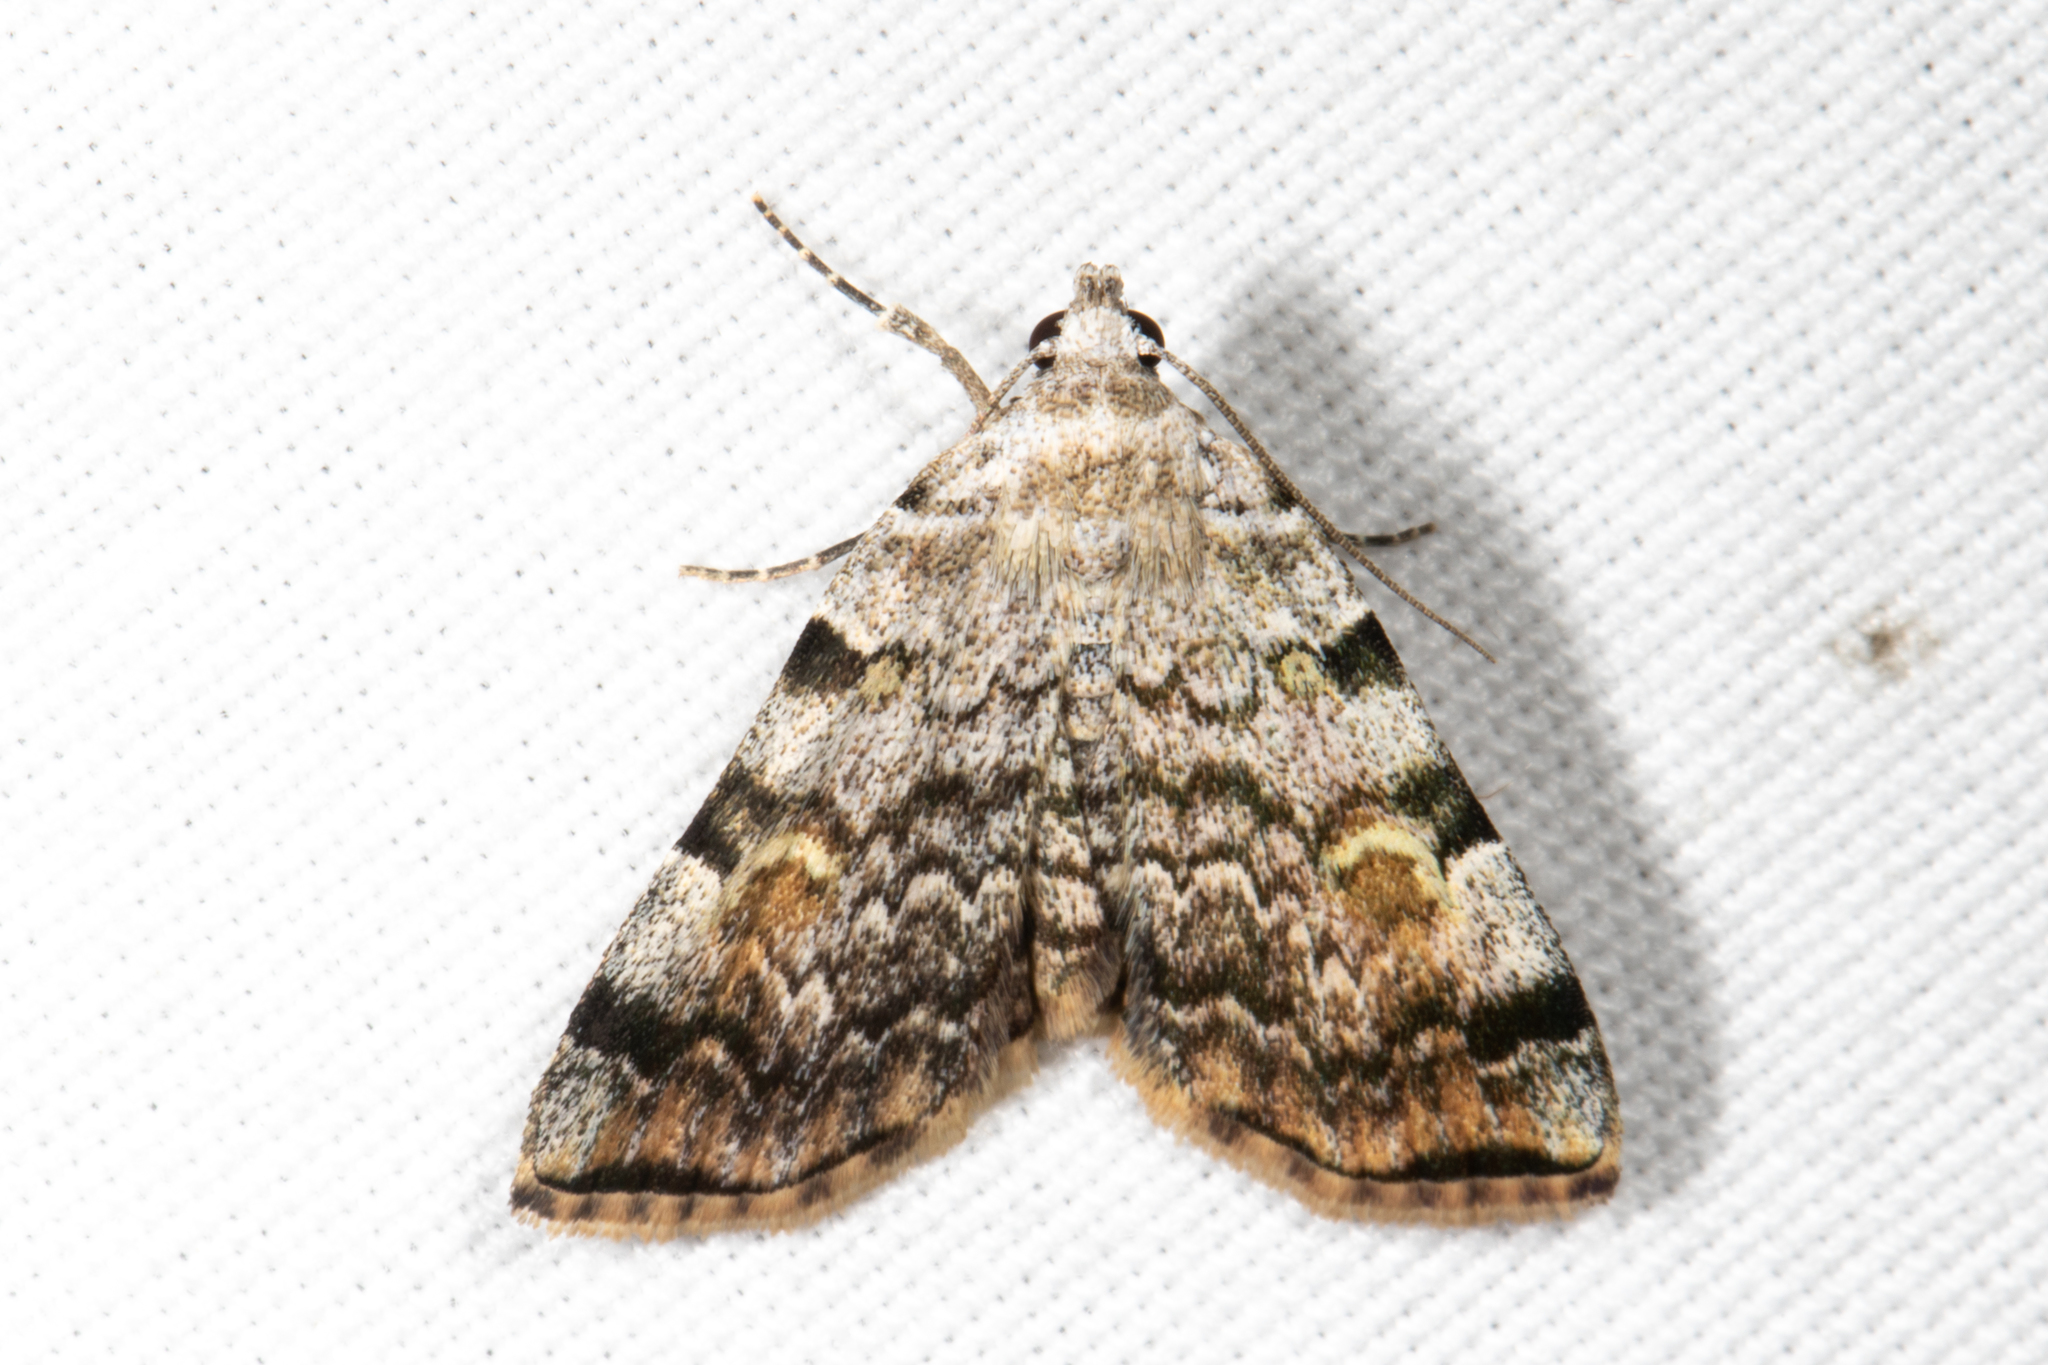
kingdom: Animalia
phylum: Arthropoda
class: Insecta
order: Lepidoptera
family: Erebidae
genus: Idia
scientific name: Idia americalis
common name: American idia moth
